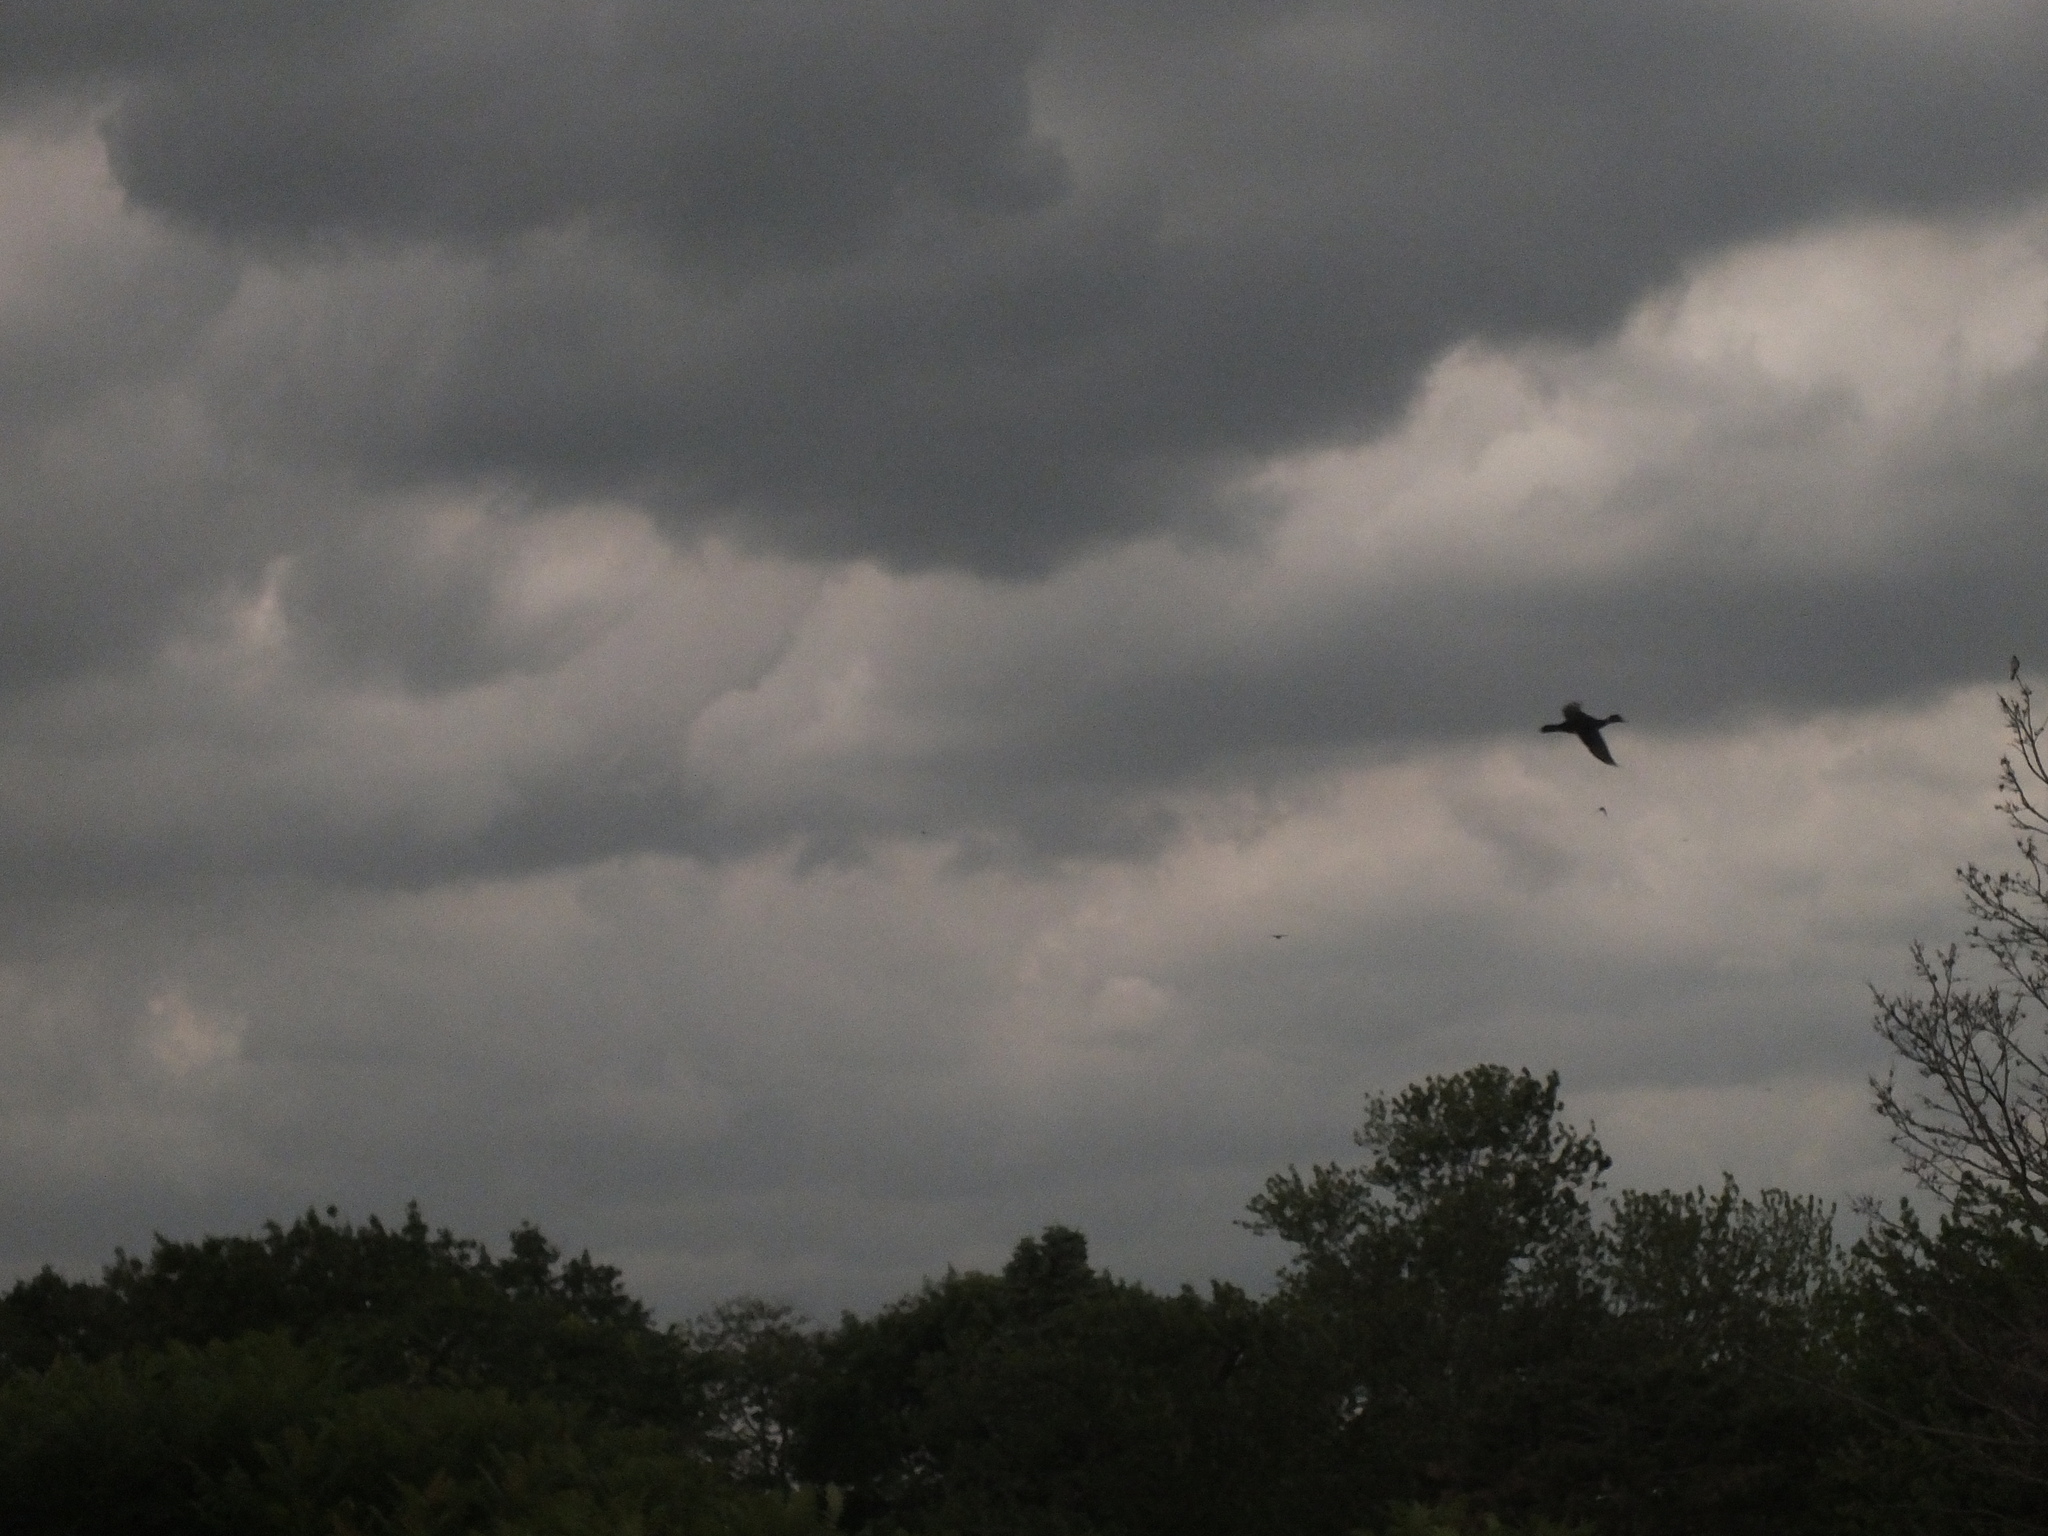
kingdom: Animalia
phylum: Chordata
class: Aves
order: Anseriformes
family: Anatidae
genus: Aix
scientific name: Aix sponsa
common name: Wood duck
